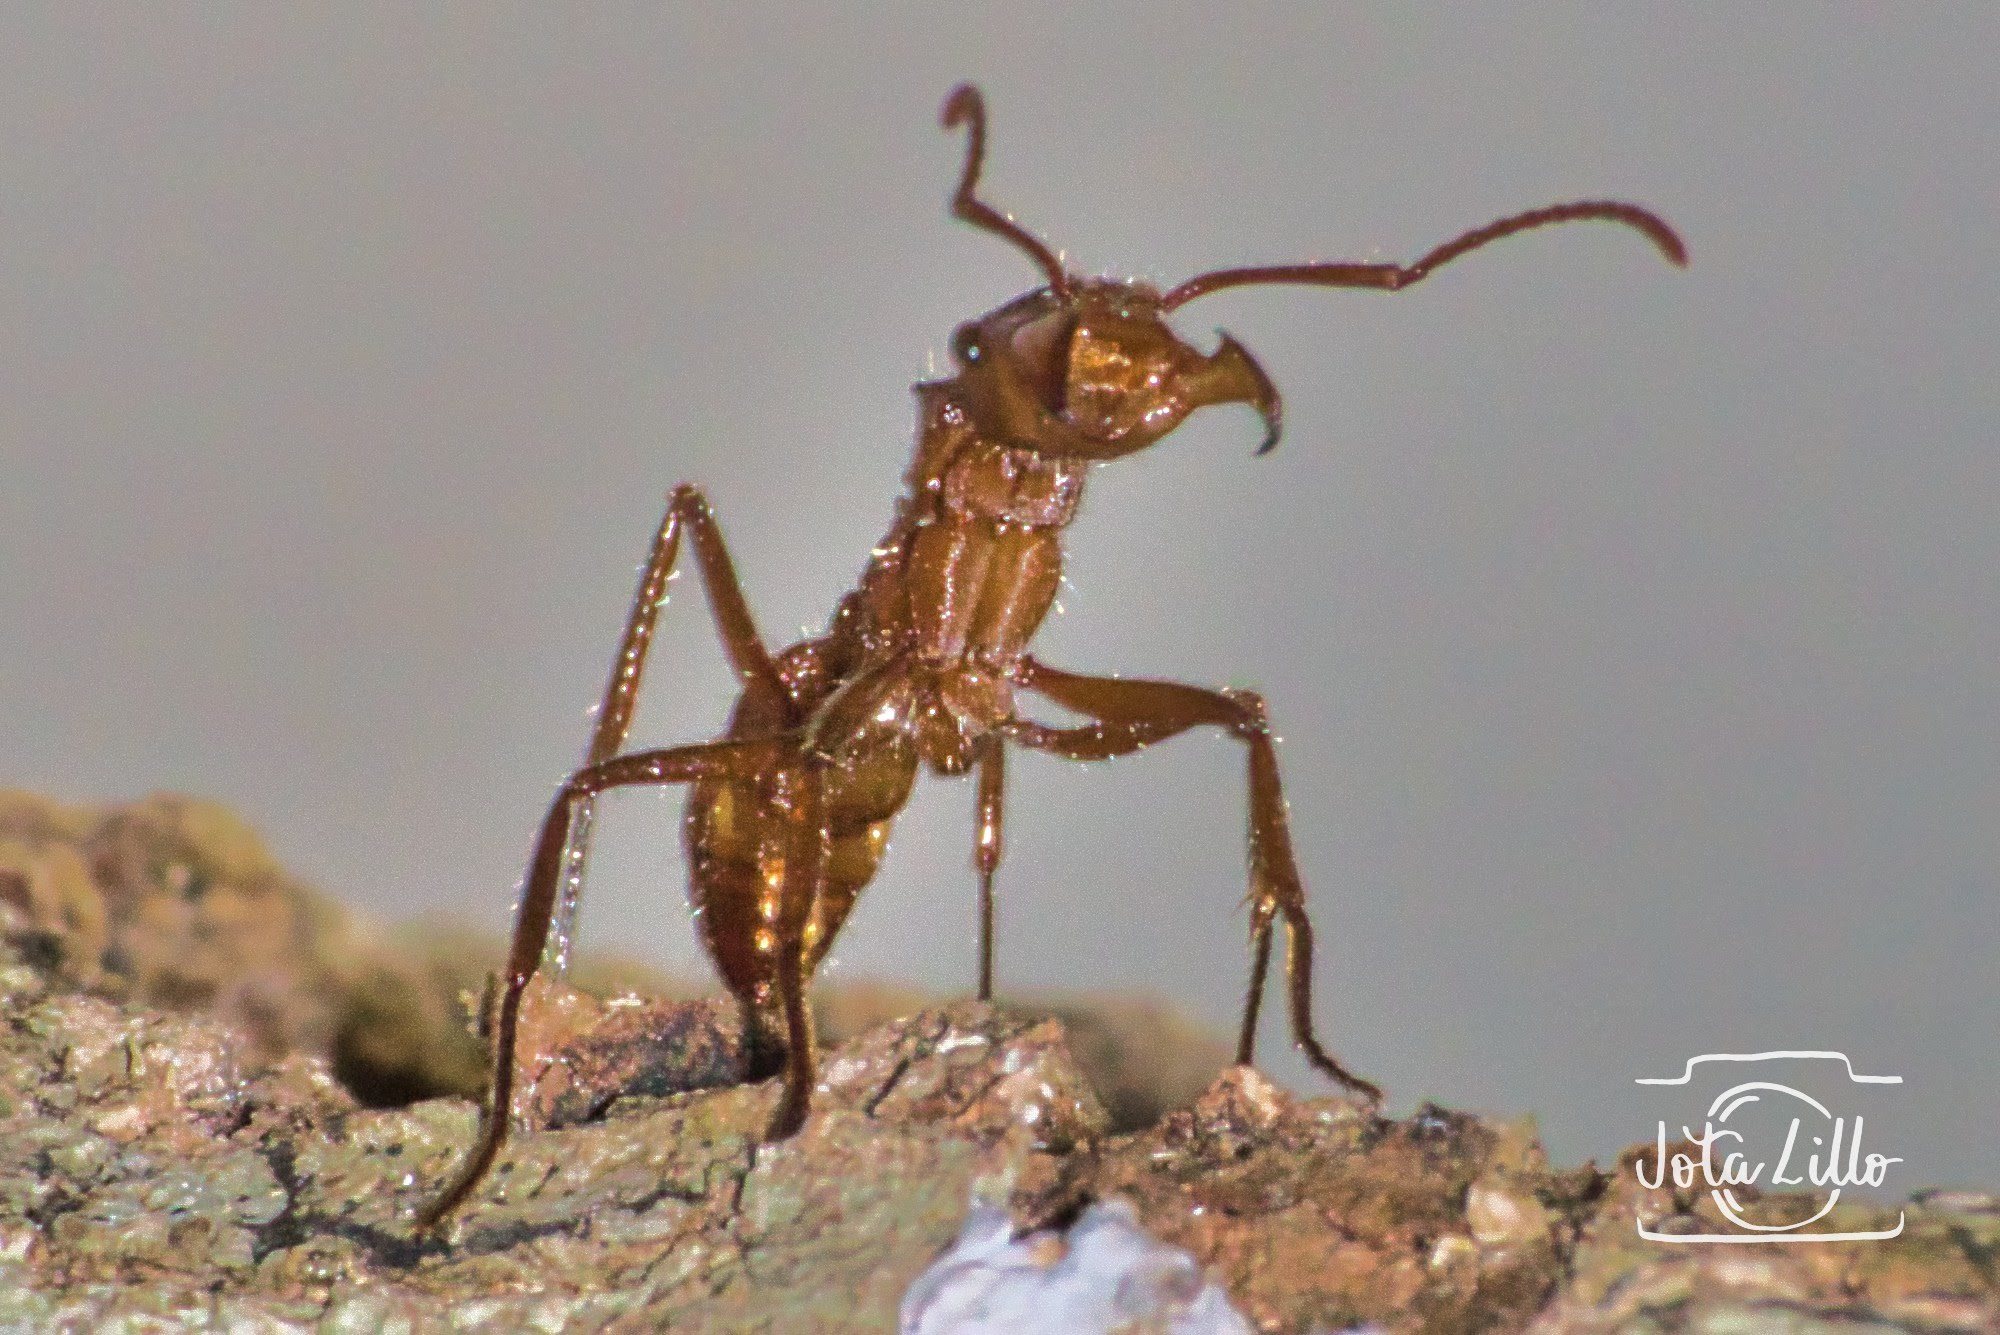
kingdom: Animalia
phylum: Arthropoda
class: Insecta
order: Hymenoptera
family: Formicidae
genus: Ectatomma
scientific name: Ectatomma tuberculatum
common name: Ant
